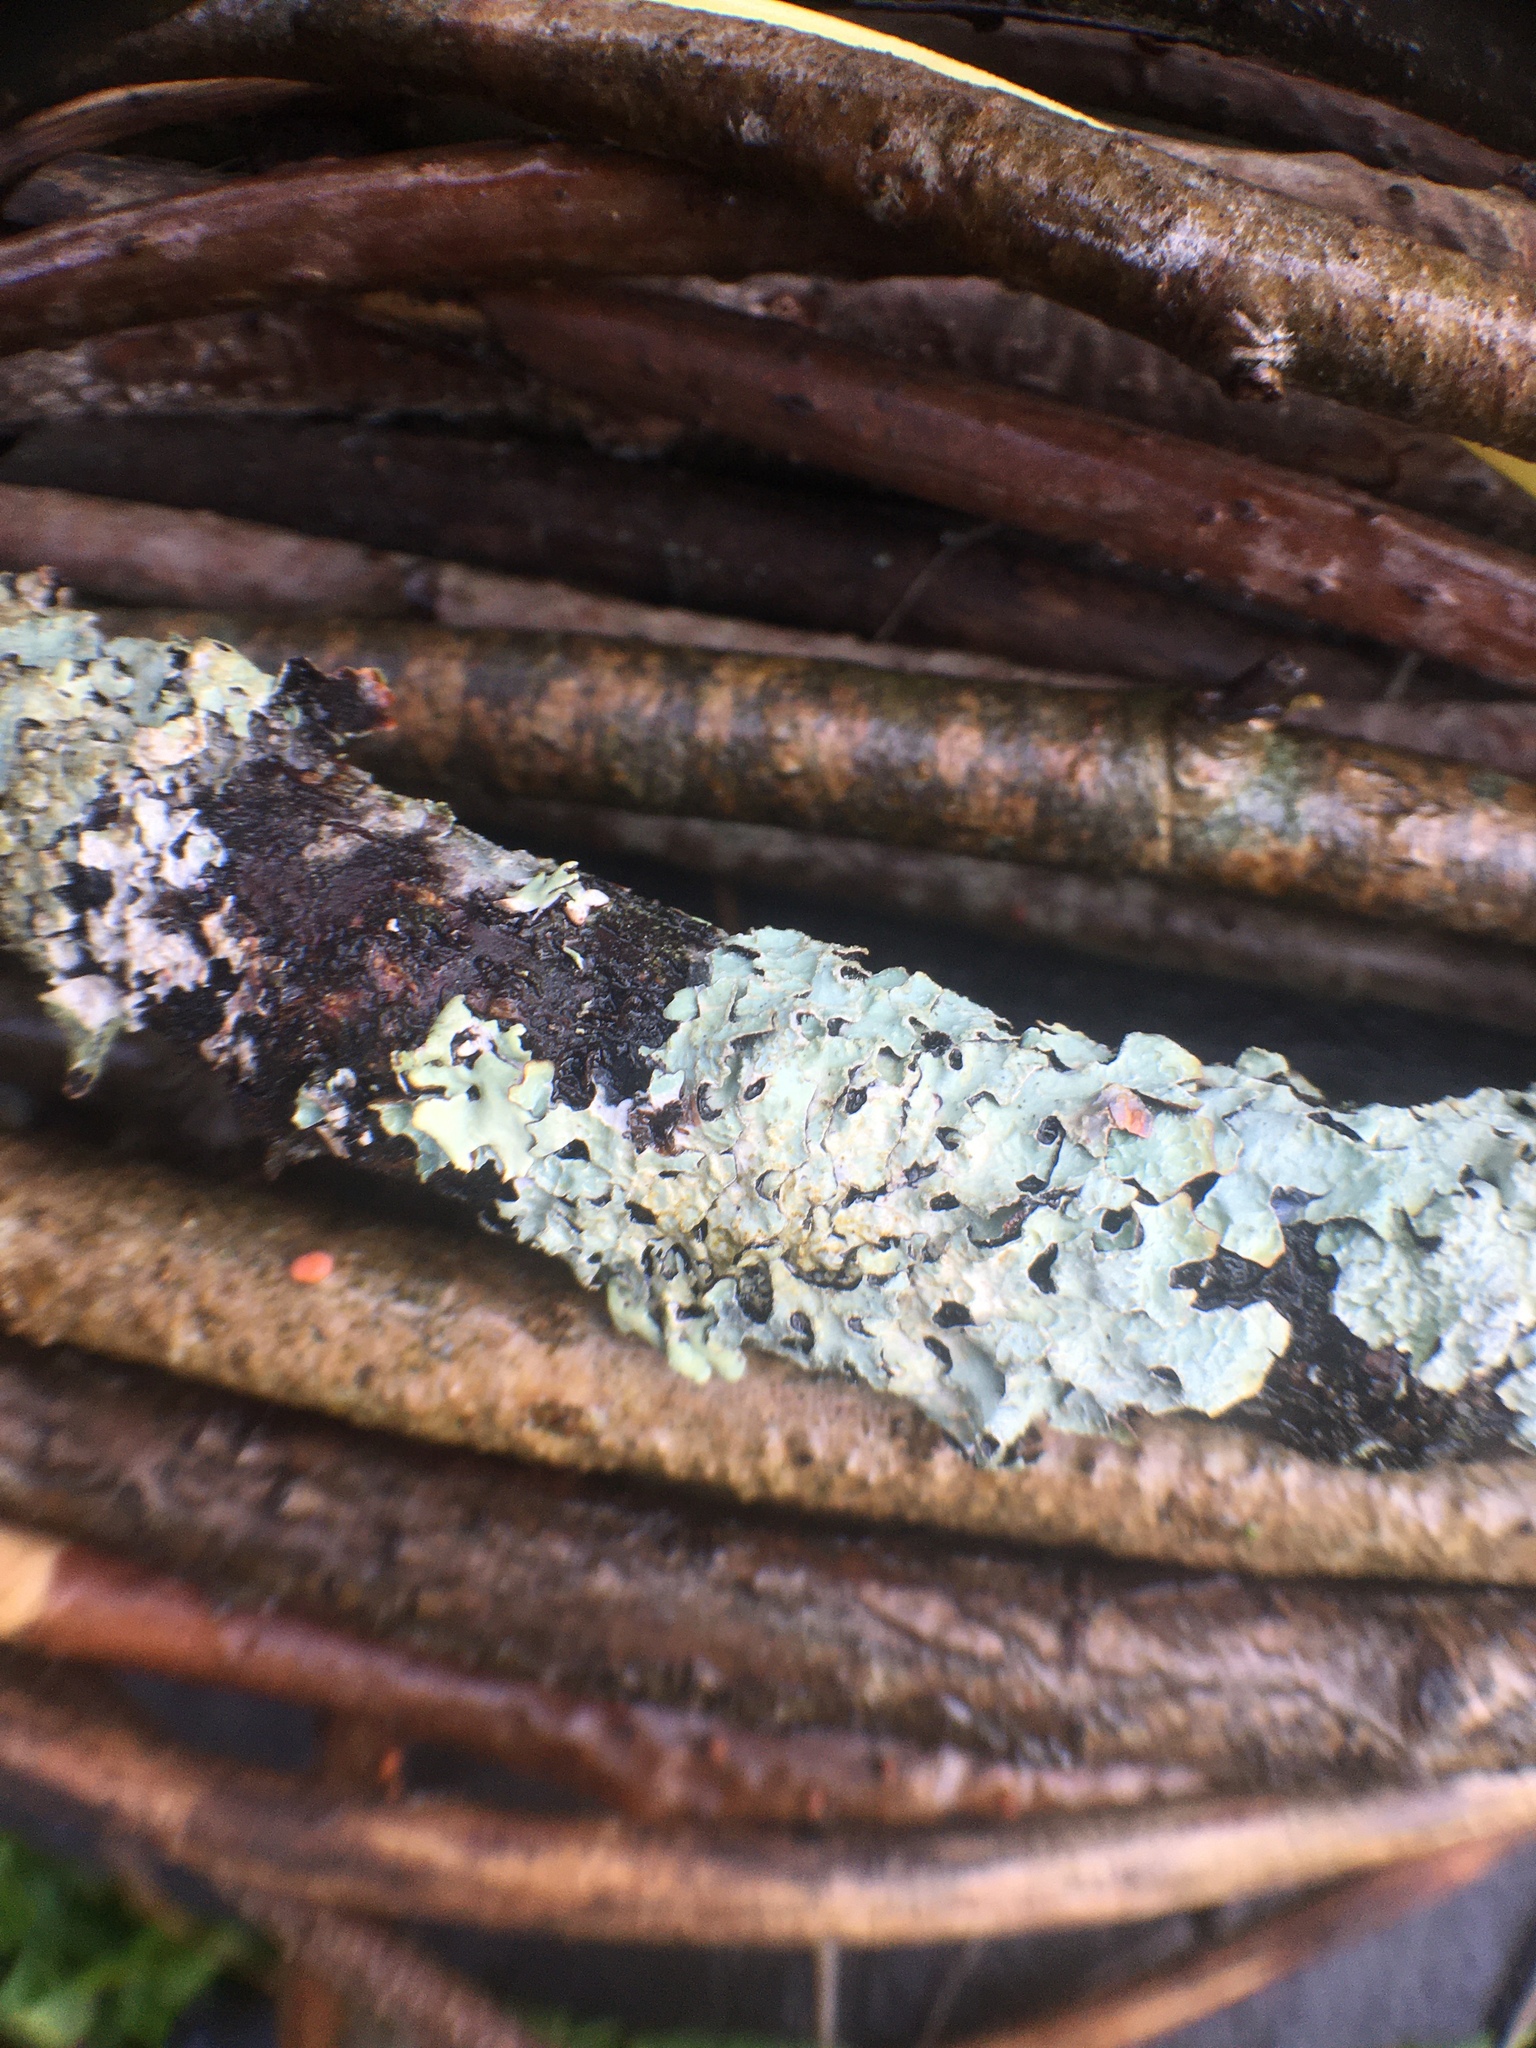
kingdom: Fungi
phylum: Ascomycota
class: Lecanoromycetes
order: Lecanorales
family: Parmeliaceae
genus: Parmelia
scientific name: Parmelia sulcata
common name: Netted shield lichen
